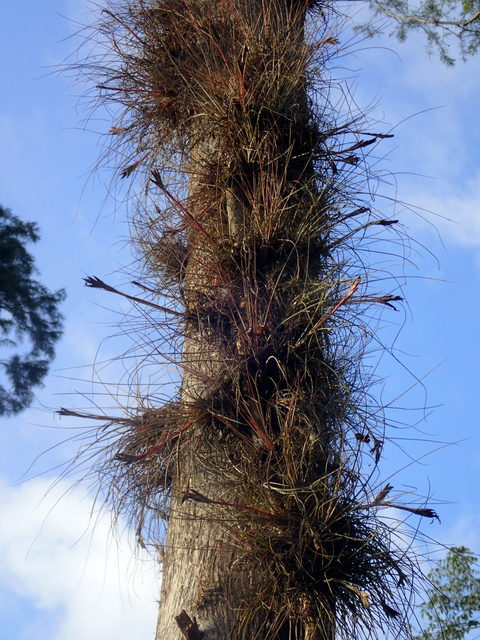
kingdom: Plantae
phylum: Tracheophyta
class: Liliopsida
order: Poales
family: Bromeliaceae
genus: Tillandsia
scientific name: Tillandsia bartramii
